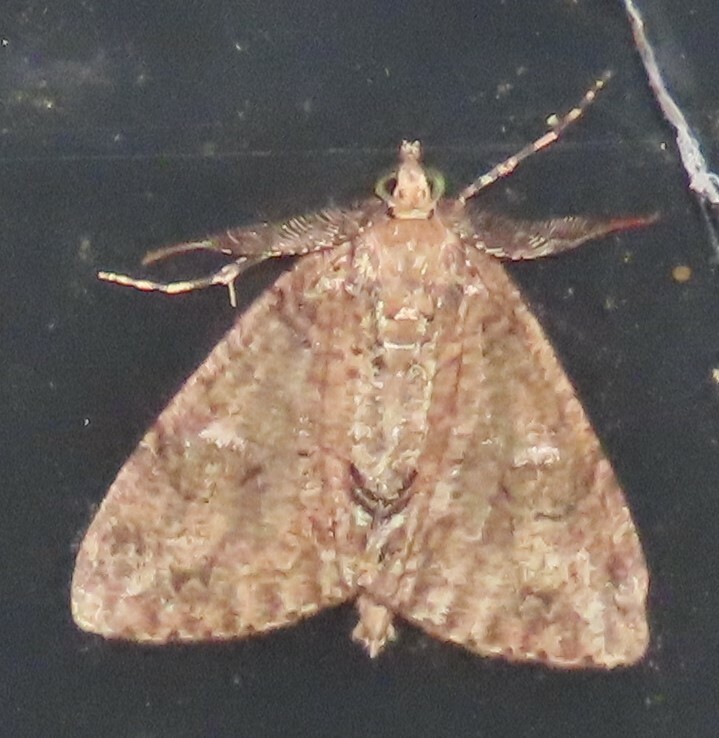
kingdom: Animalia
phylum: Arthropoda
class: Insecta
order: Lepidoptera
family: Geometridae
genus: Pseudocoremia
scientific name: Pseudocoremia suavis
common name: Common forest looper
